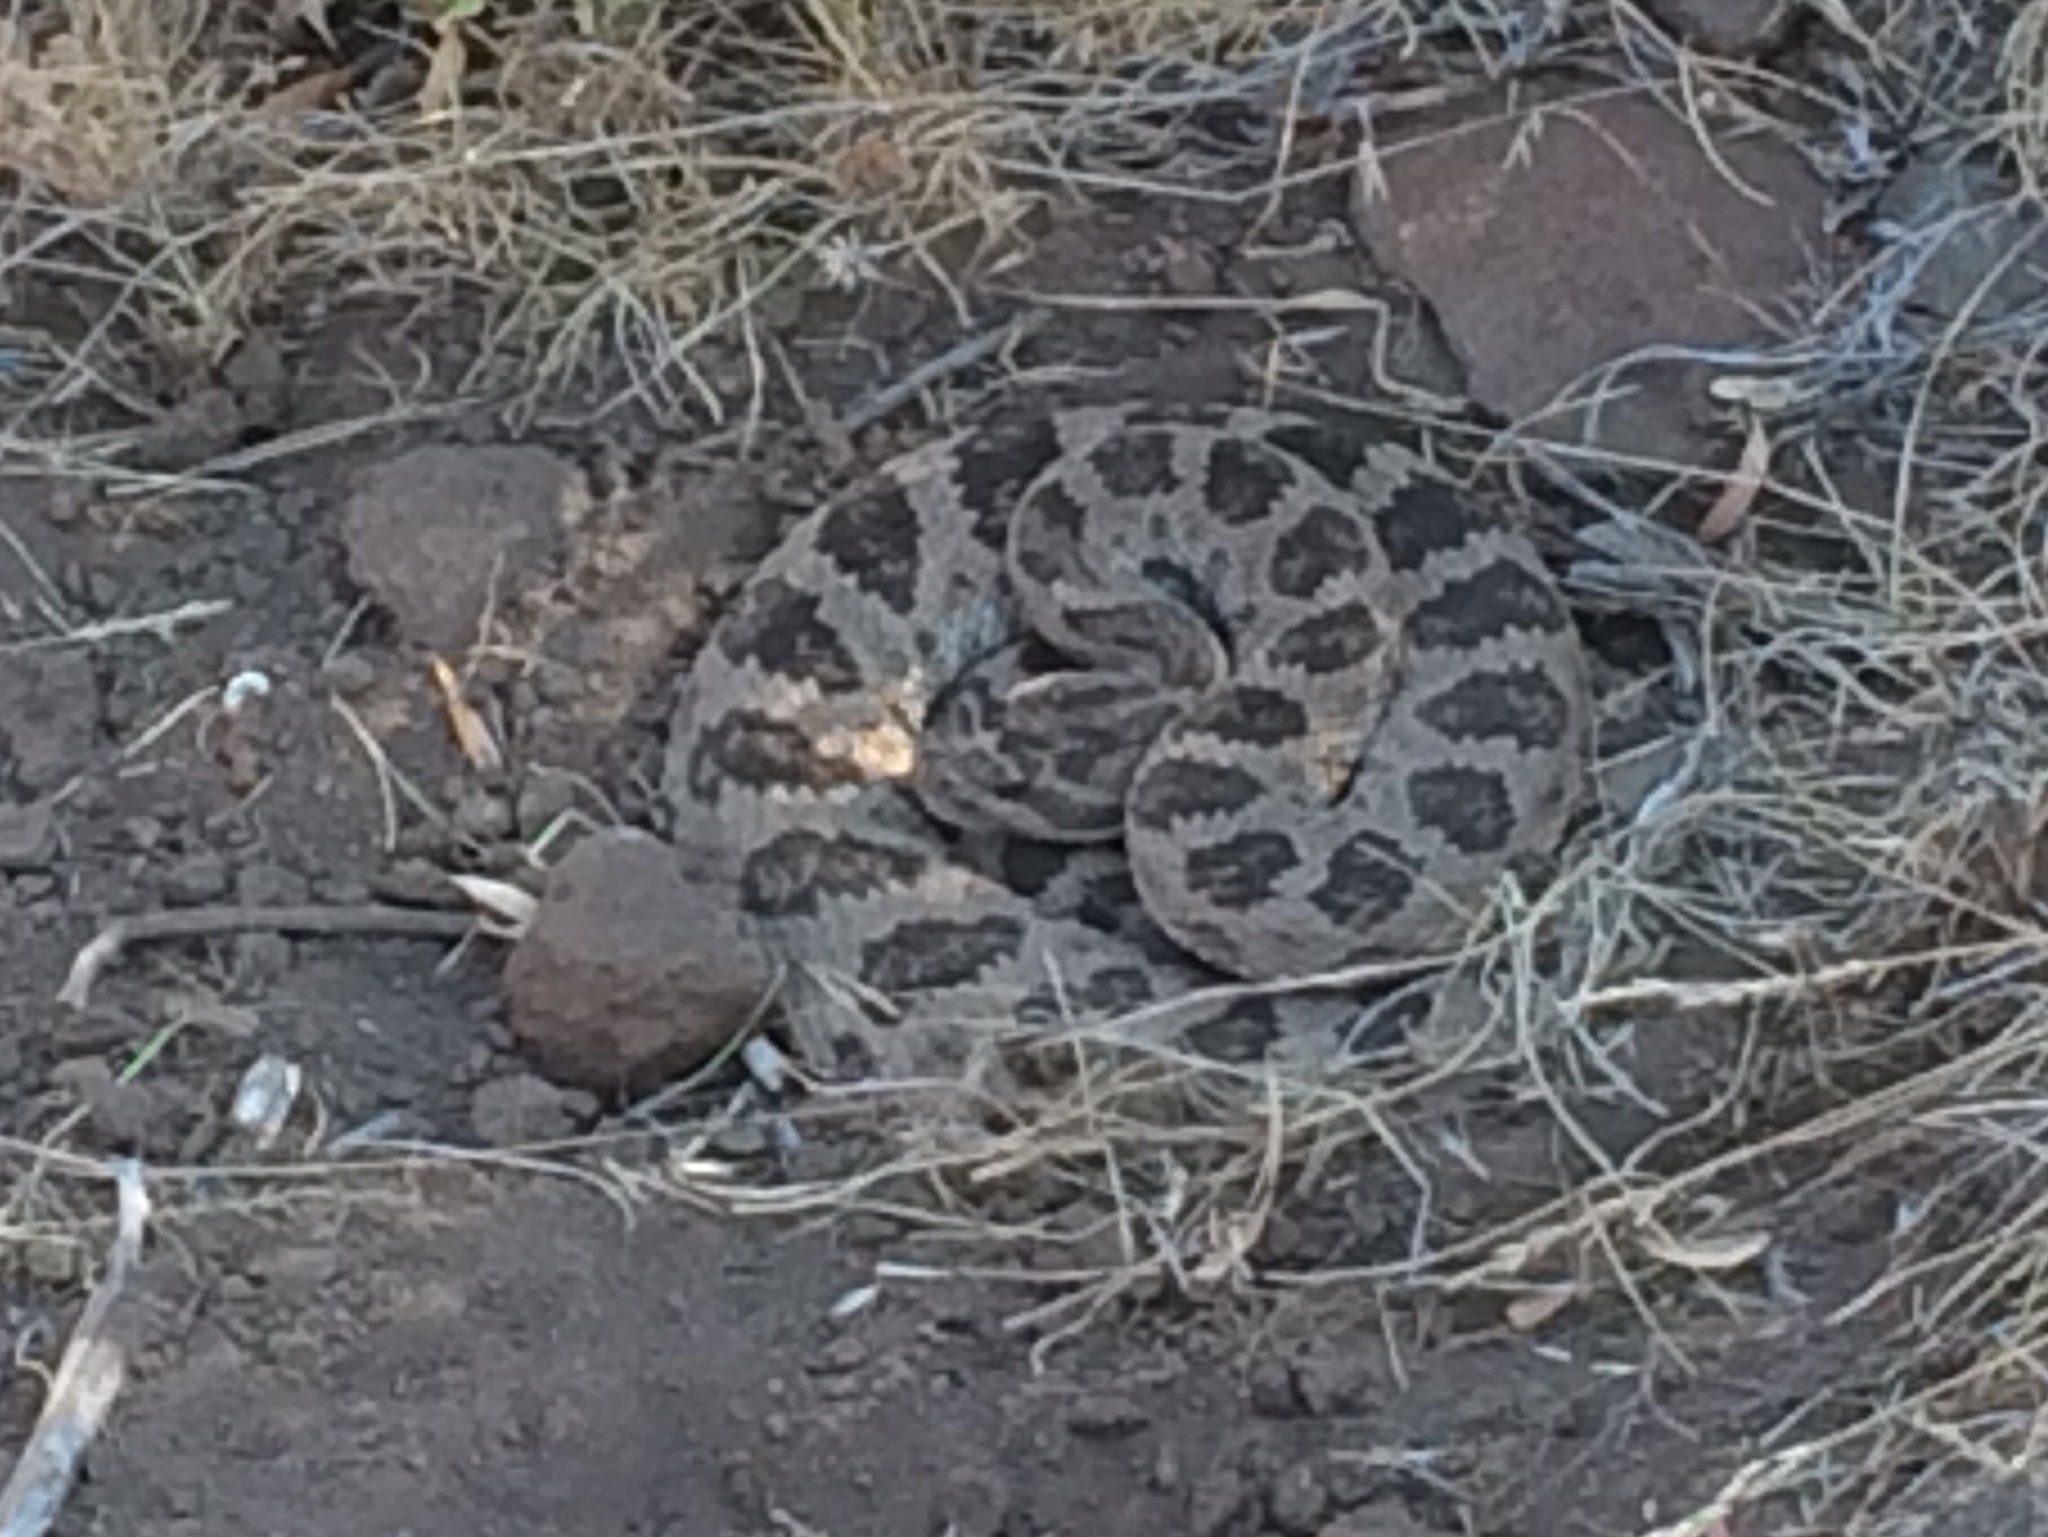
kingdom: Animalia
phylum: Chordata
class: Squamata
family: Viperidae
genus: Crotalus
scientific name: Crotalus oreganus
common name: Abyssus
